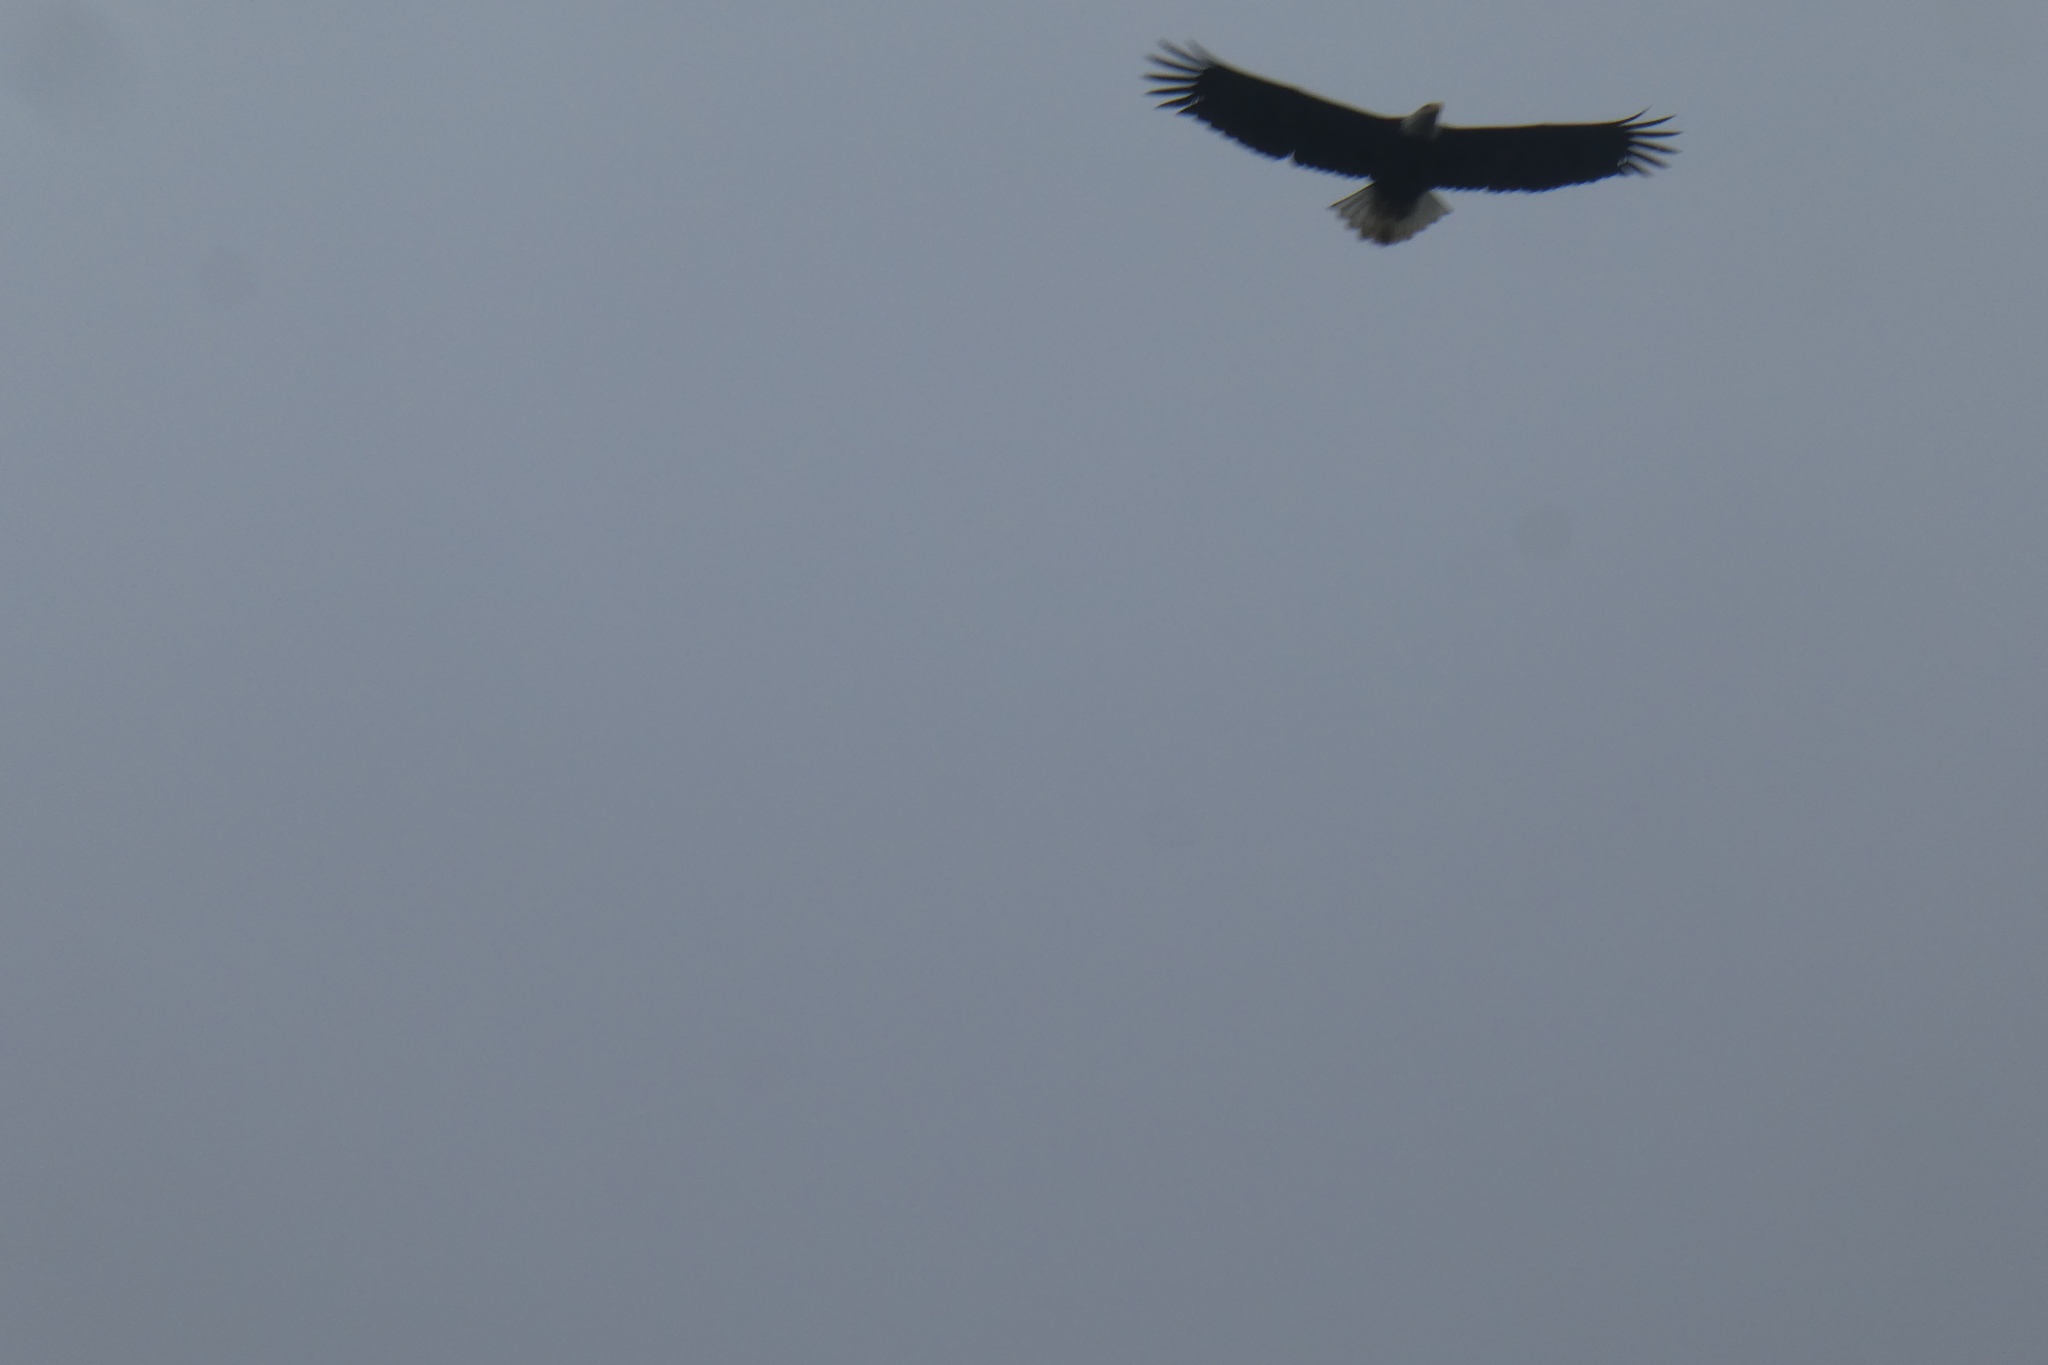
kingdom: Animalia
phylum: Chordata
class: Aves
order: Accipitriformes
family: Accipitridae
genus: Haliaeetus
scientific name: Haliaeetus leucocephalus
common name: Bald eagle
